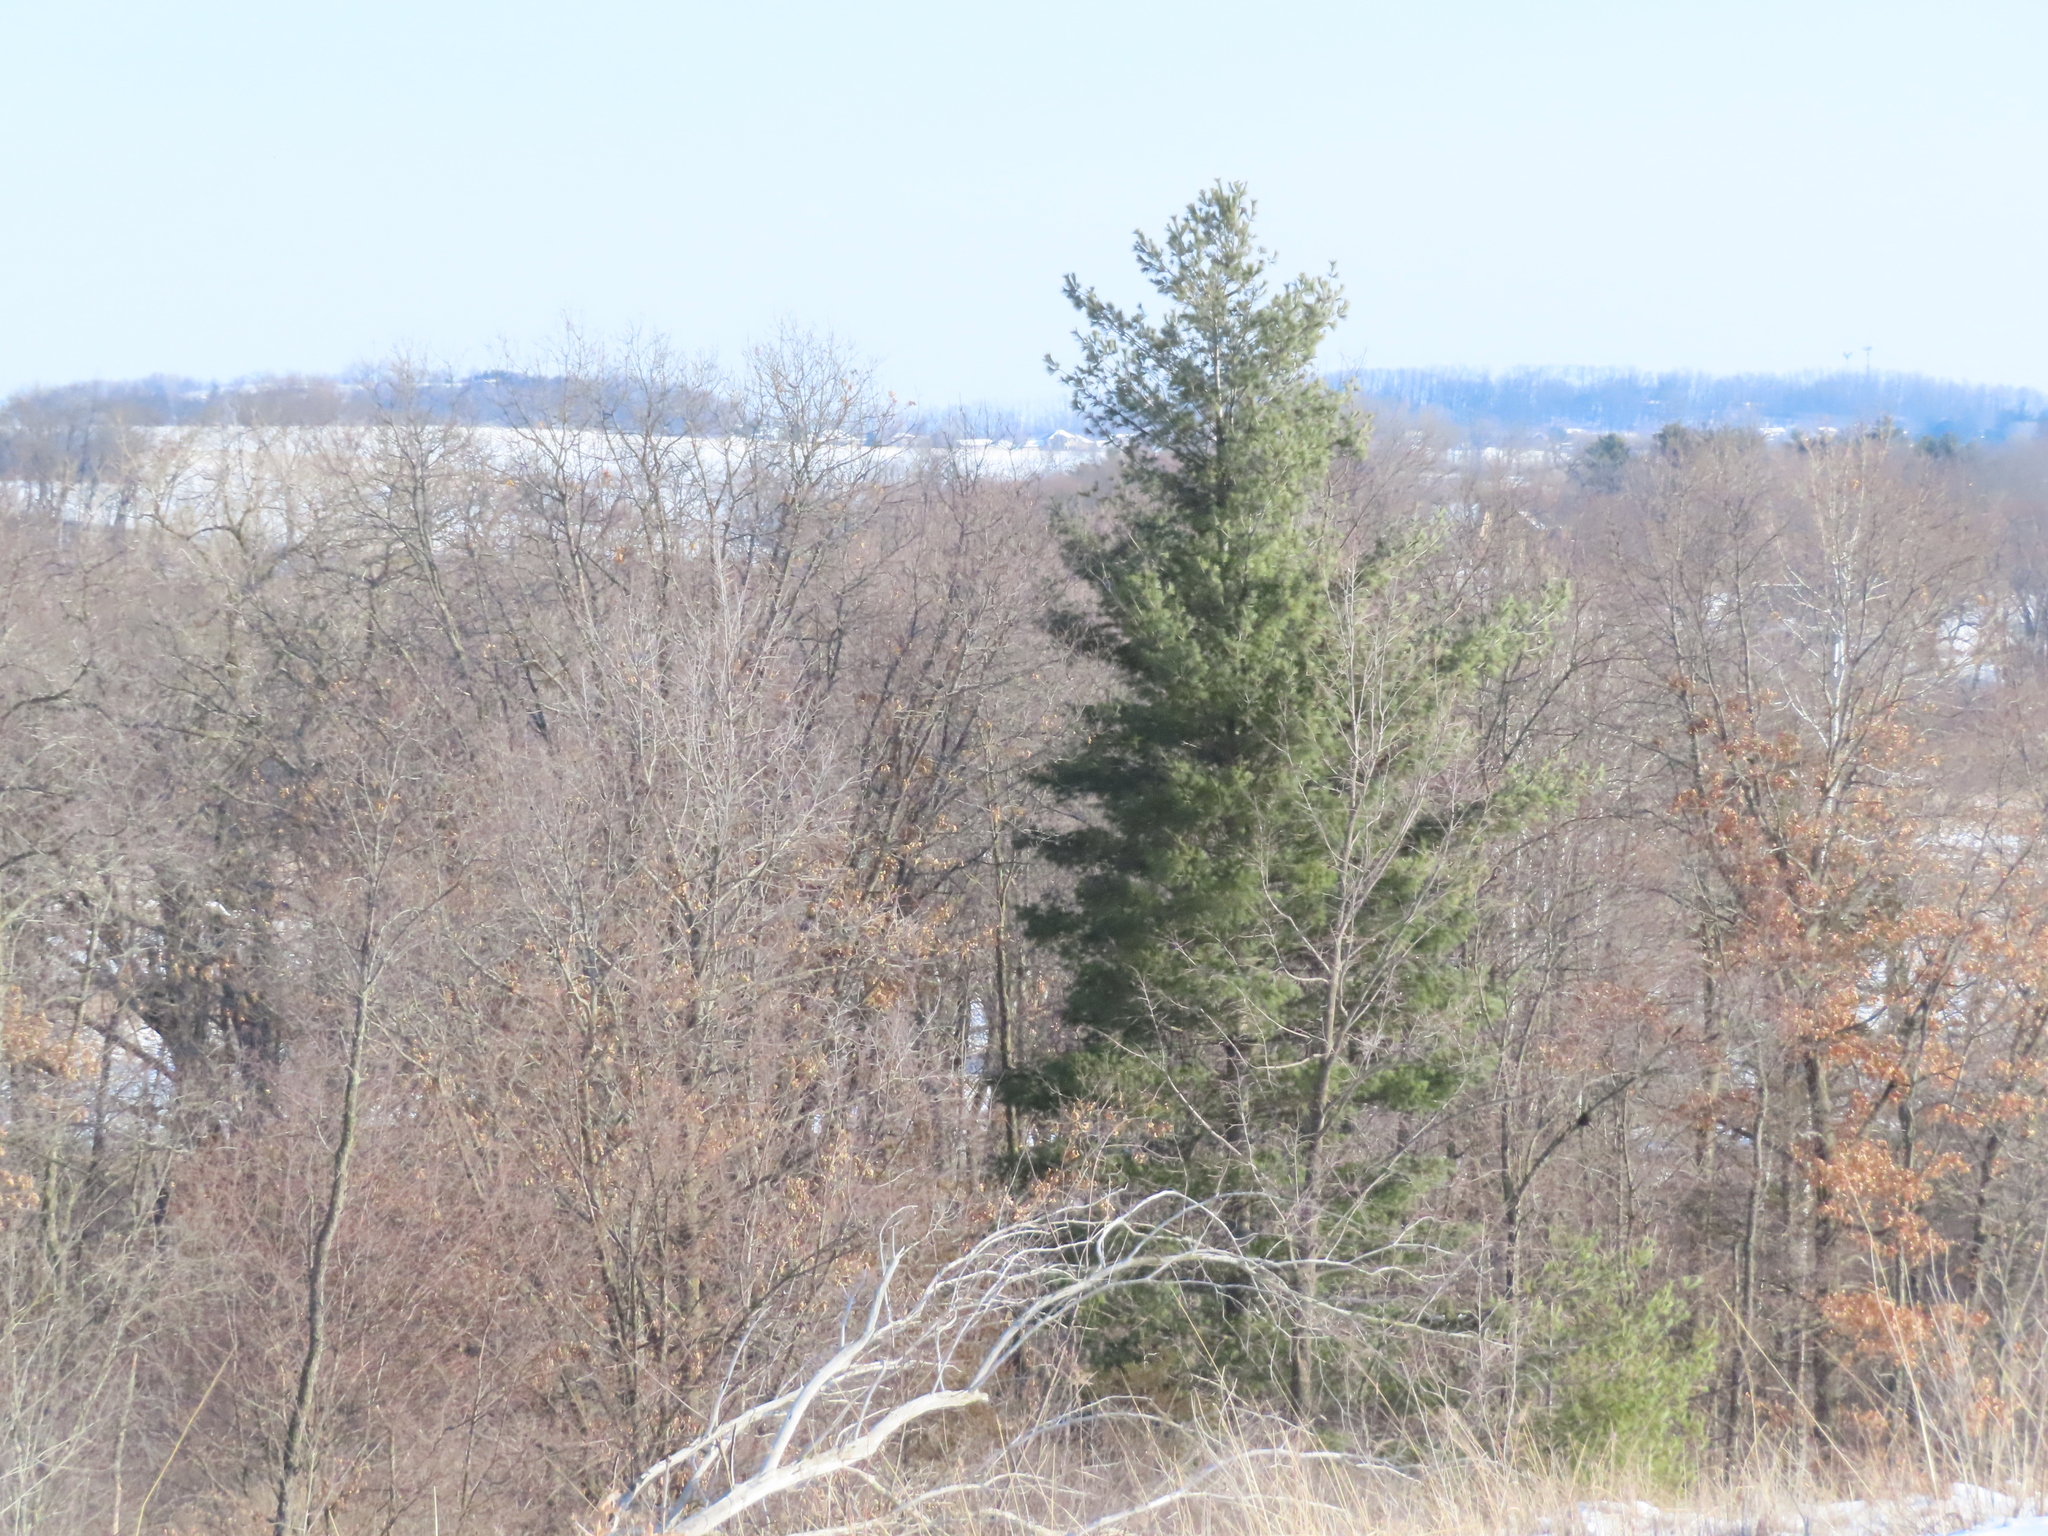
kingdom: Plantae
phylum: Tracheophyta
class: Pinopsida
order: Pinales
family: Pinaceae
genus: Pinus
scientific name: Pinus strobus
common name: Weymouth pine
